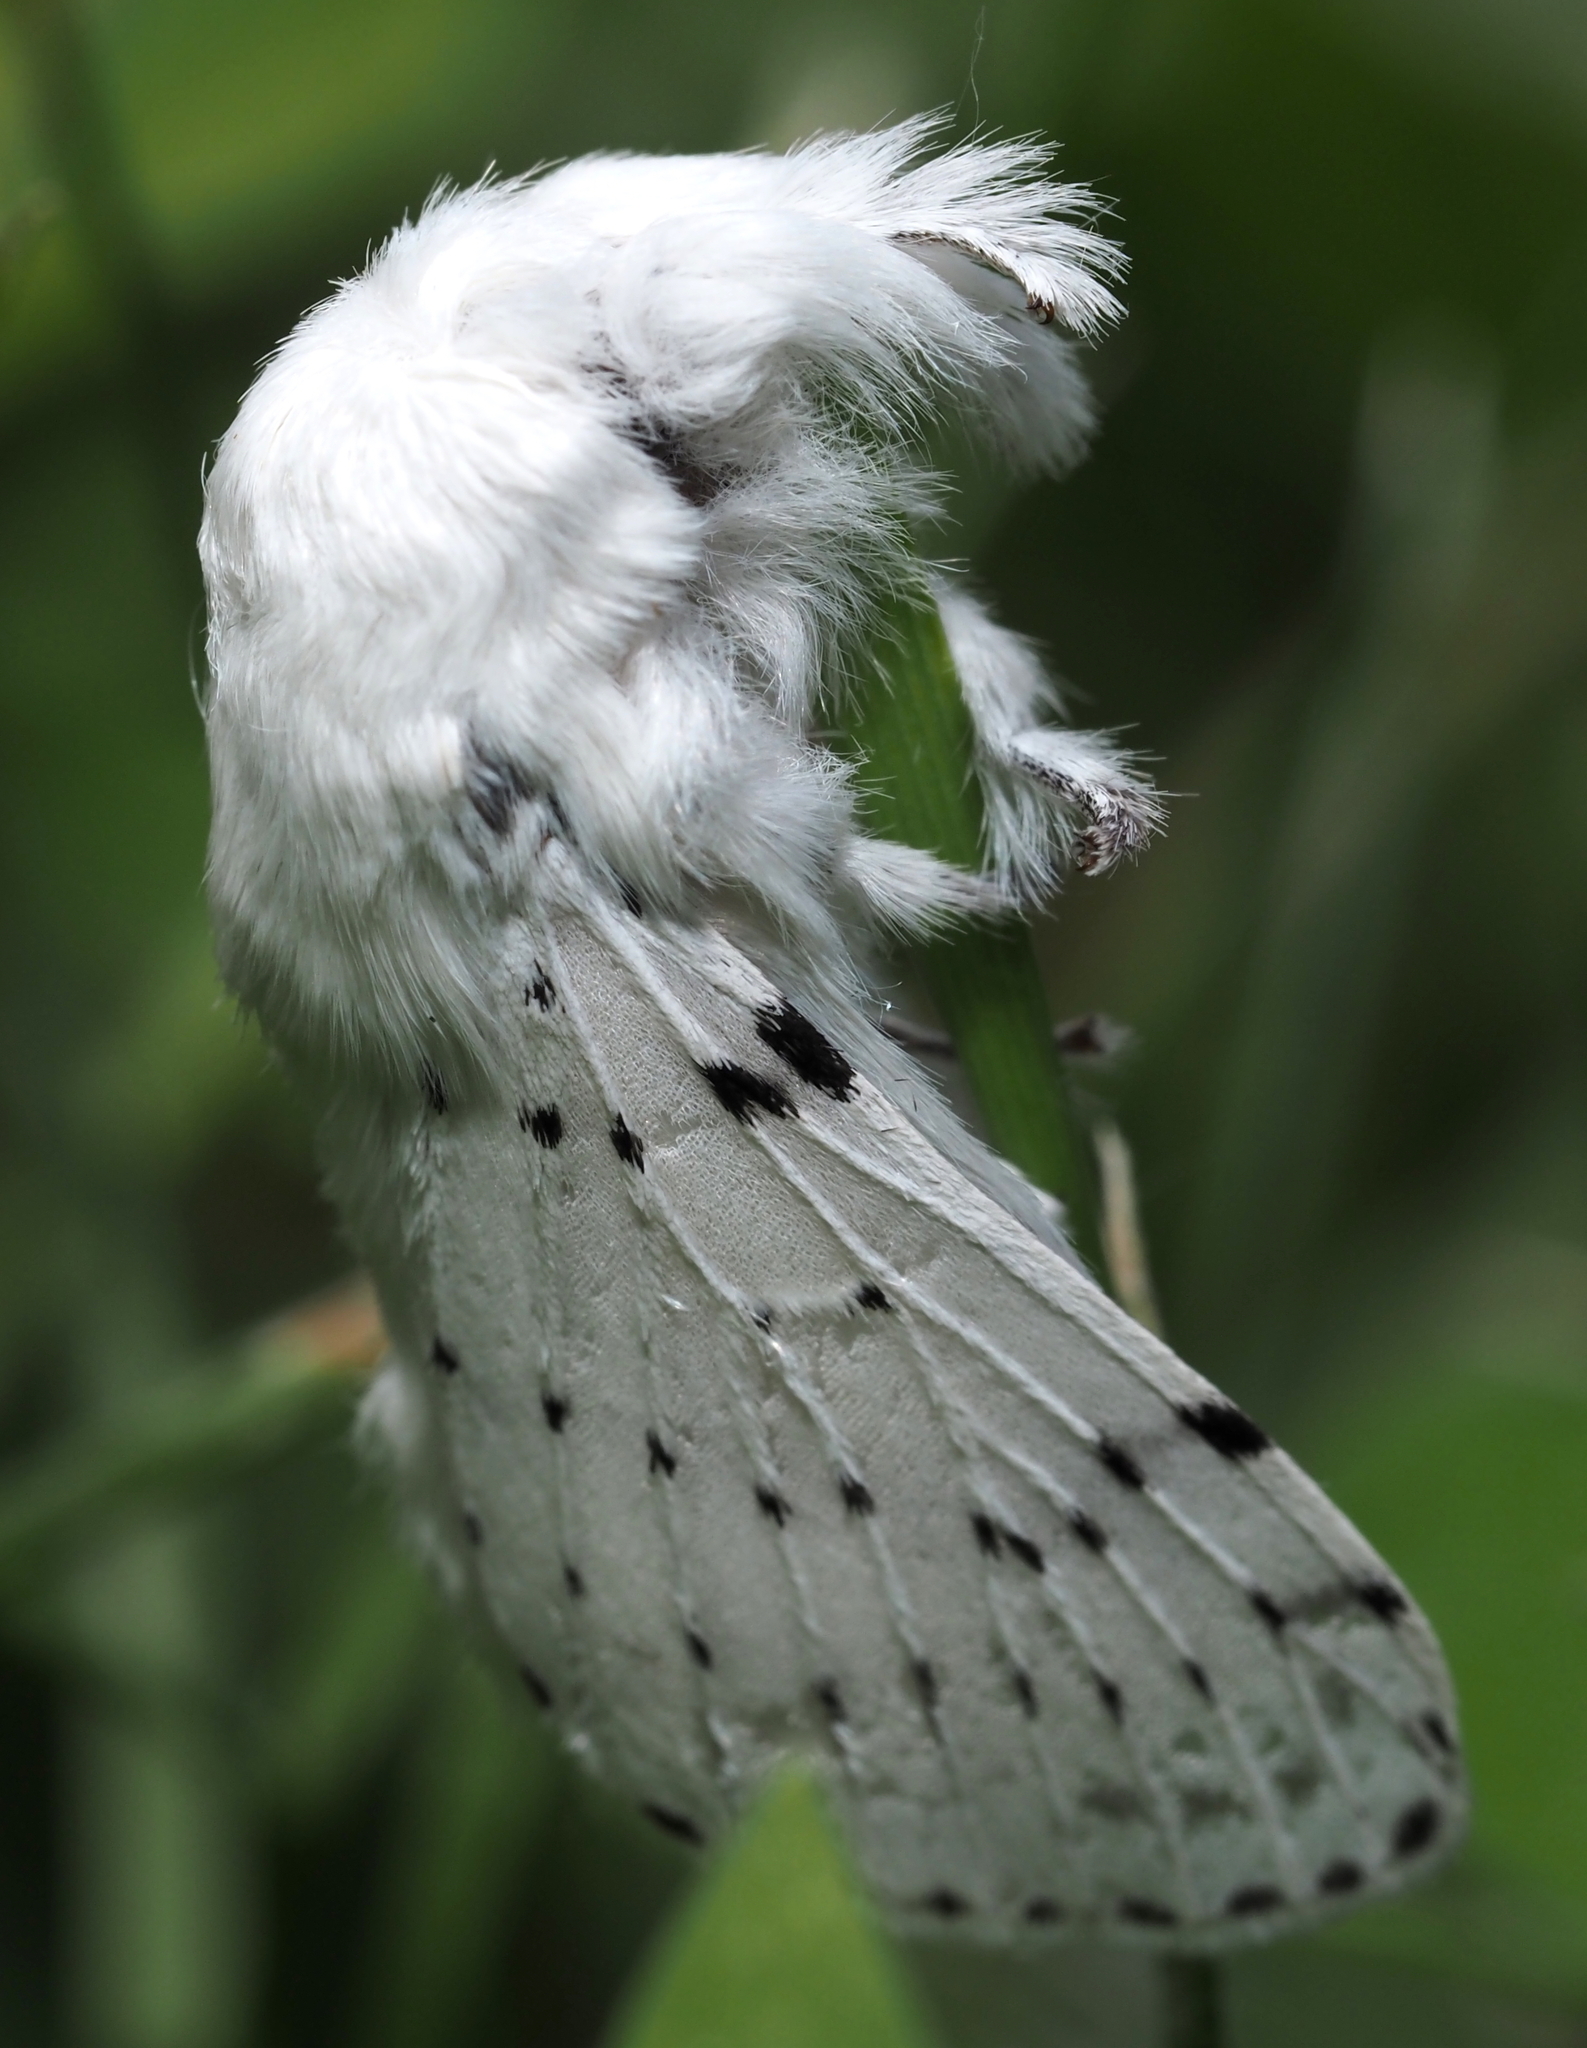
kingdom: Animalia
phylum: Arthropoda
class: Insecta
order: Lepidoptera
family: Lasiocampidae
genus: Artace
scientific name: Artace cribrarius
